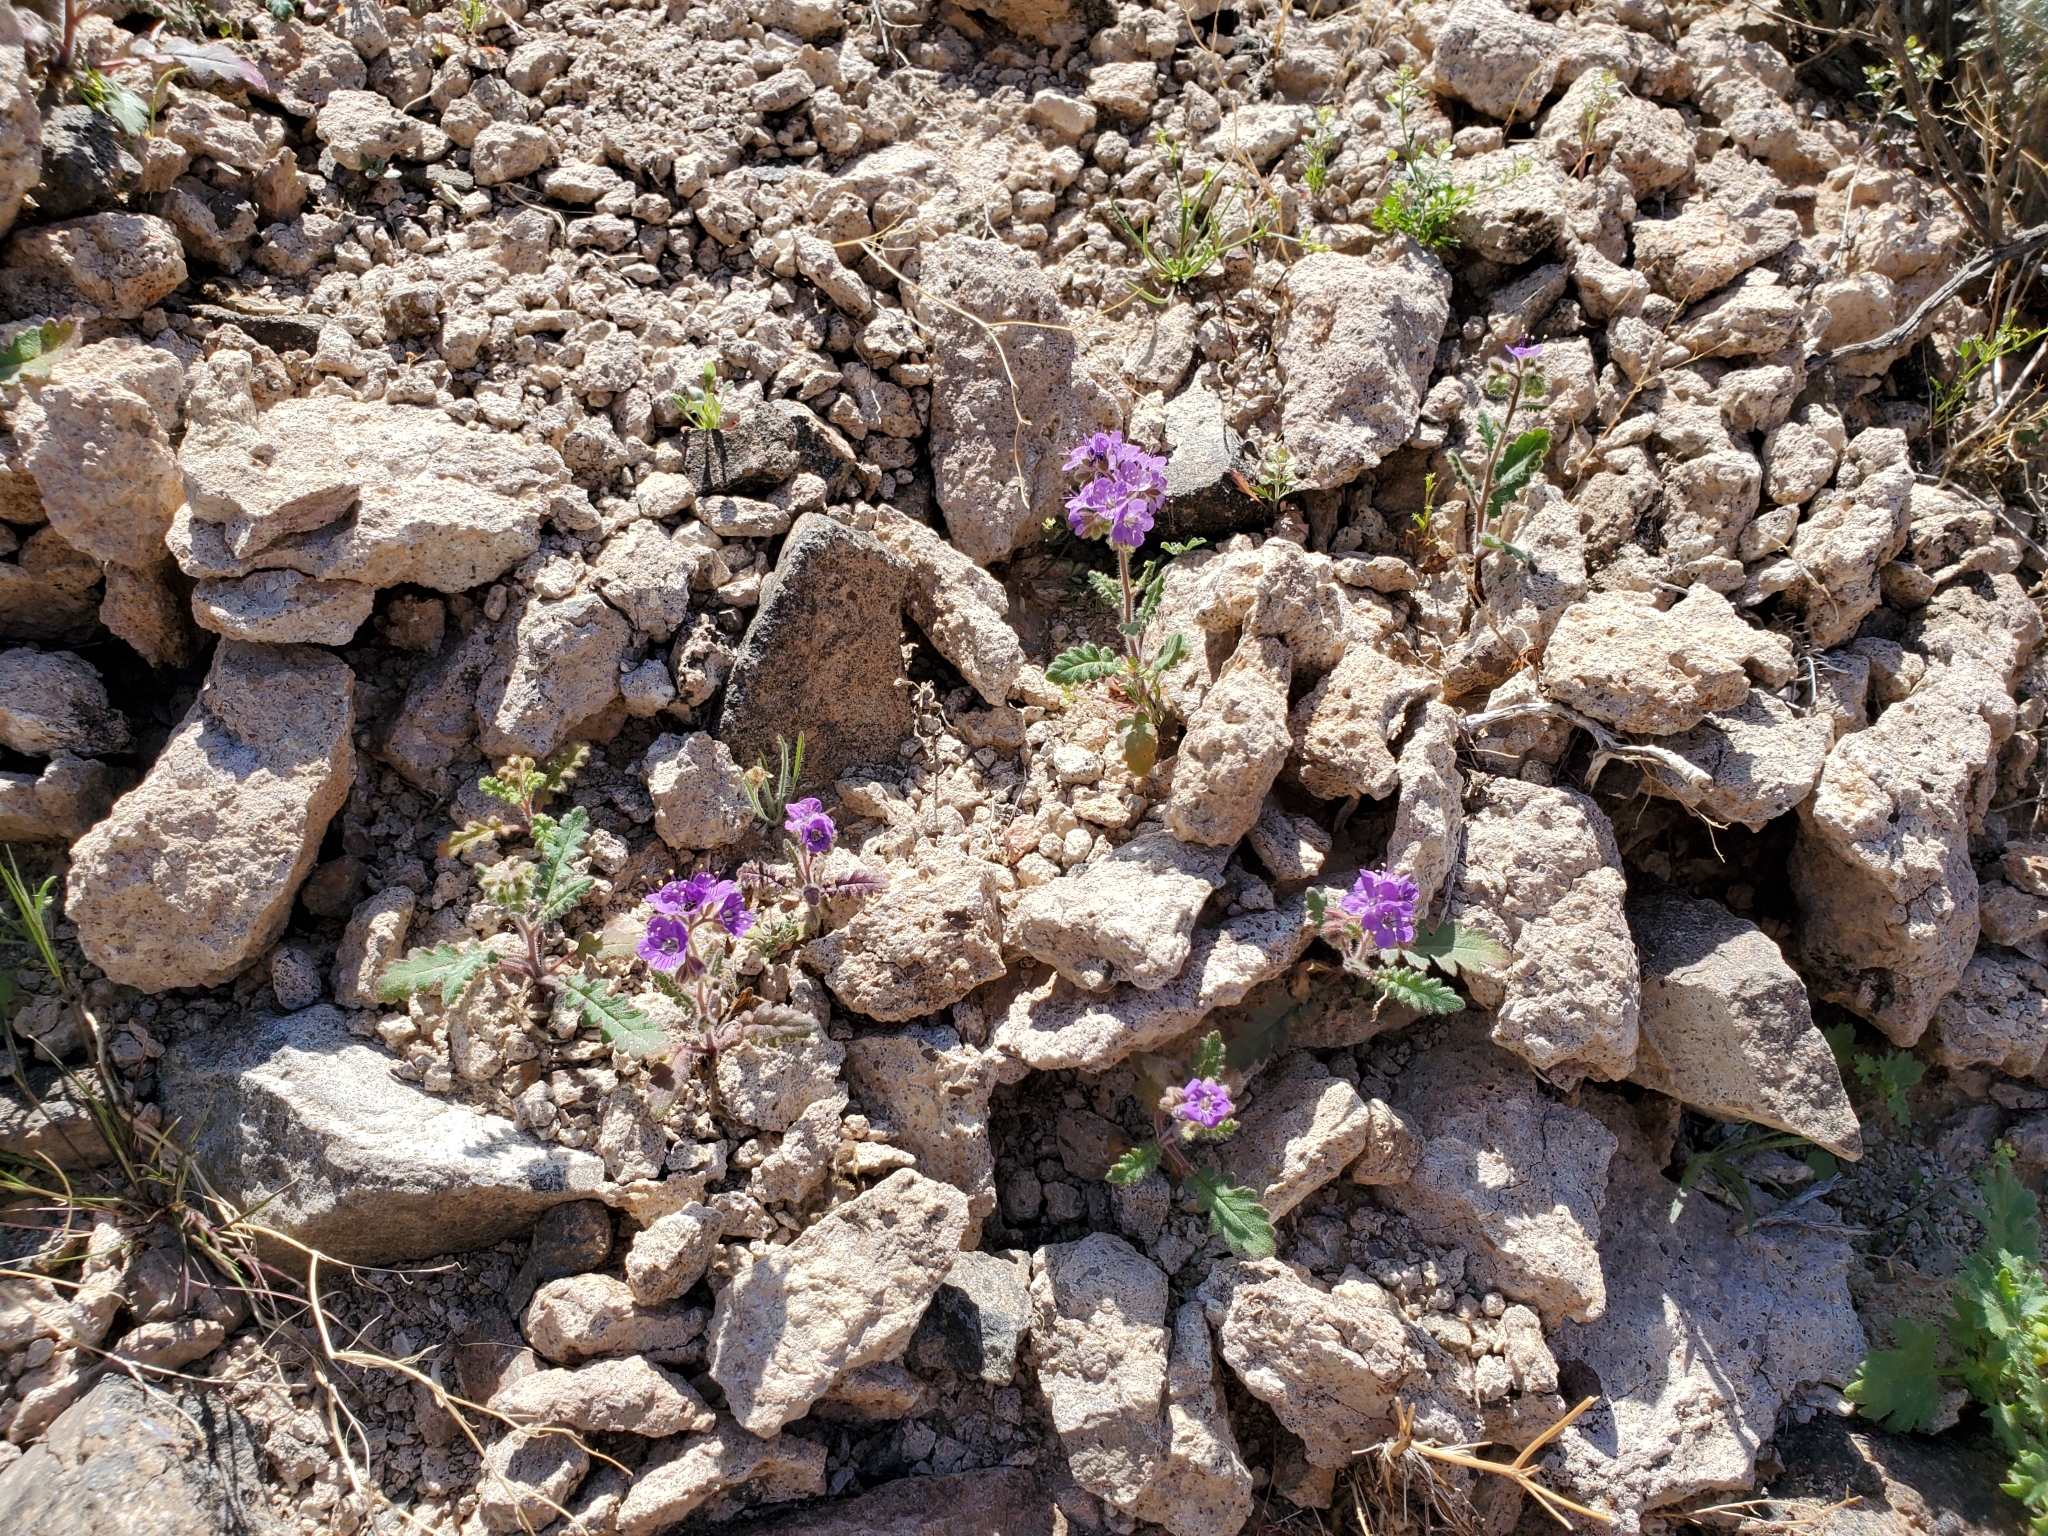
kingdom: Plantae
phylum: Tracheophyta
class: Magnoliopsida
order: Boraginales
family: Hydrophyllaceae
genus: Phacelia
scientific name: Phacelia crenulata
